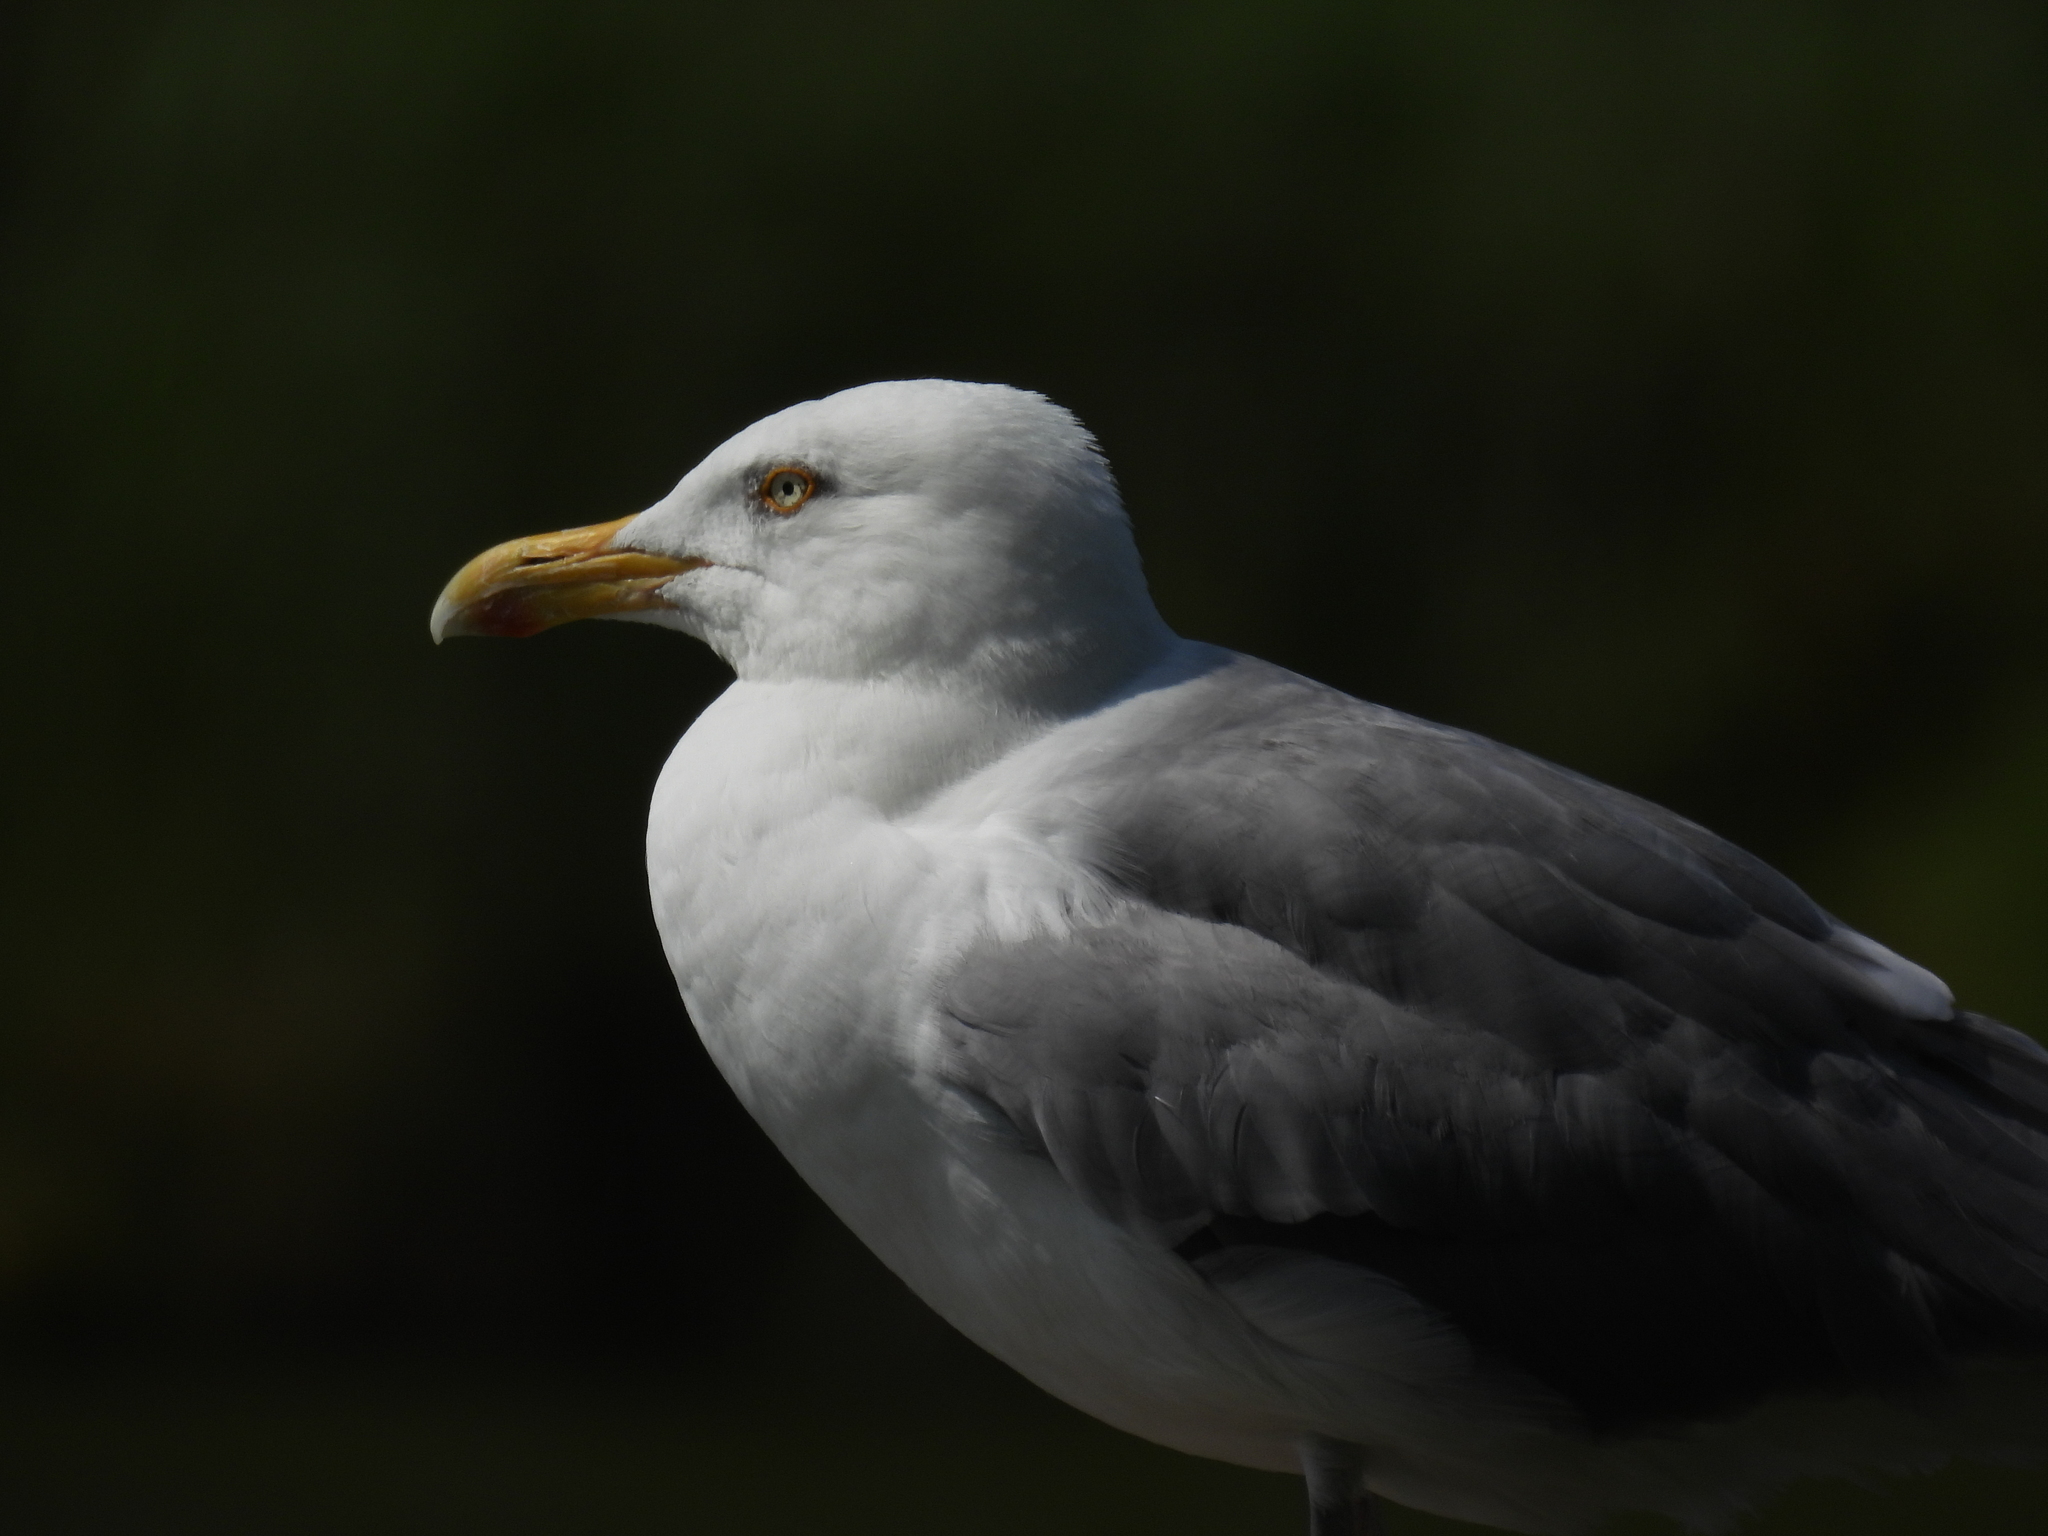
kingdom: Animalia
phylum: Chordata
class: Aves
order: Charadriiformes
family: Laridae
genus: Larus
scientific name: Larus michahellis
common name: Yellow-legged gull
